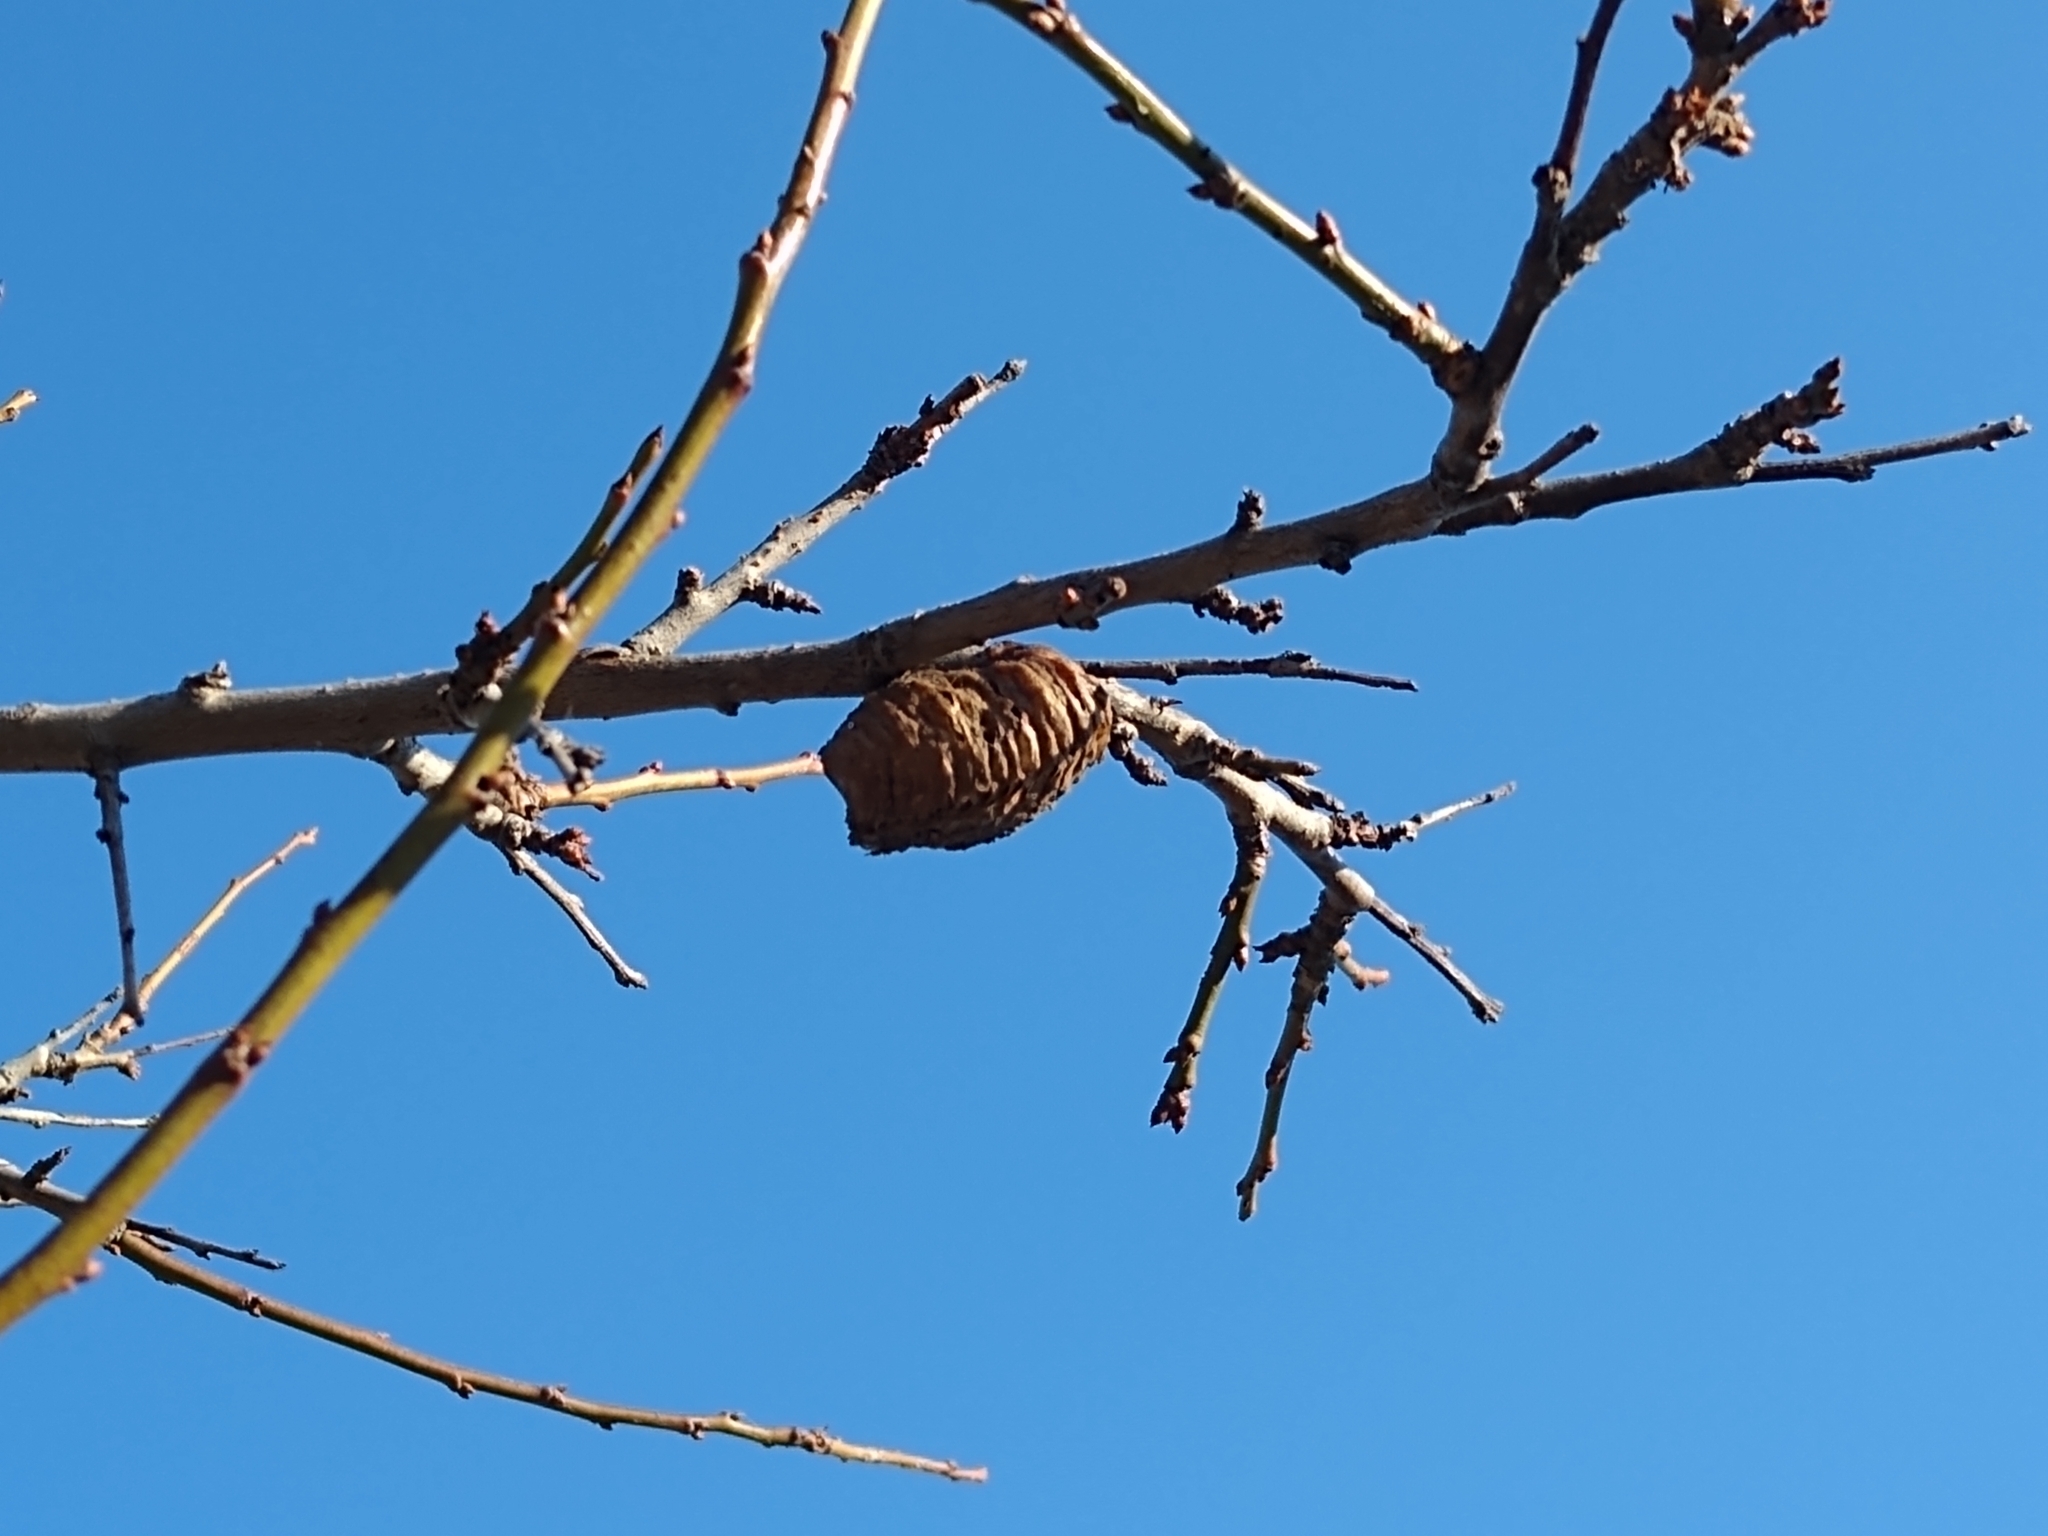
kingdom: Animalia
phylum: Arthropoda
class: Insecta
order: Mantodea
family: Mantidae
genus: Hierodula
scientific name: Hierodula transcaucasica
